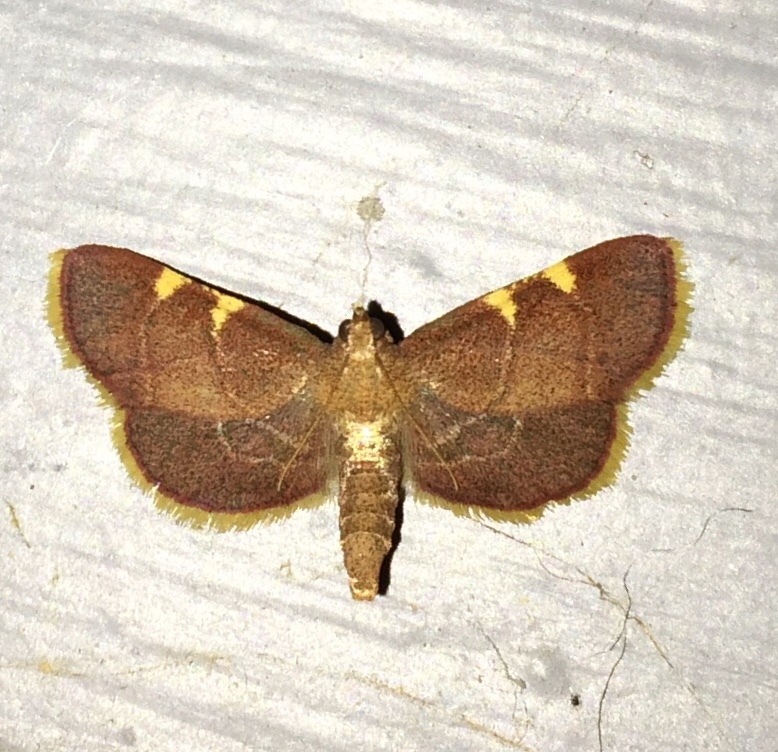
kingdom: Animalia
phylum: Arthropoda
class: Insecta
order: Lepidoptera
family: Pyralidae
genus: Hypsopygia
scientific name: Hypsopygia olinalis
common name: Yellow-fringed dolichomia moth
